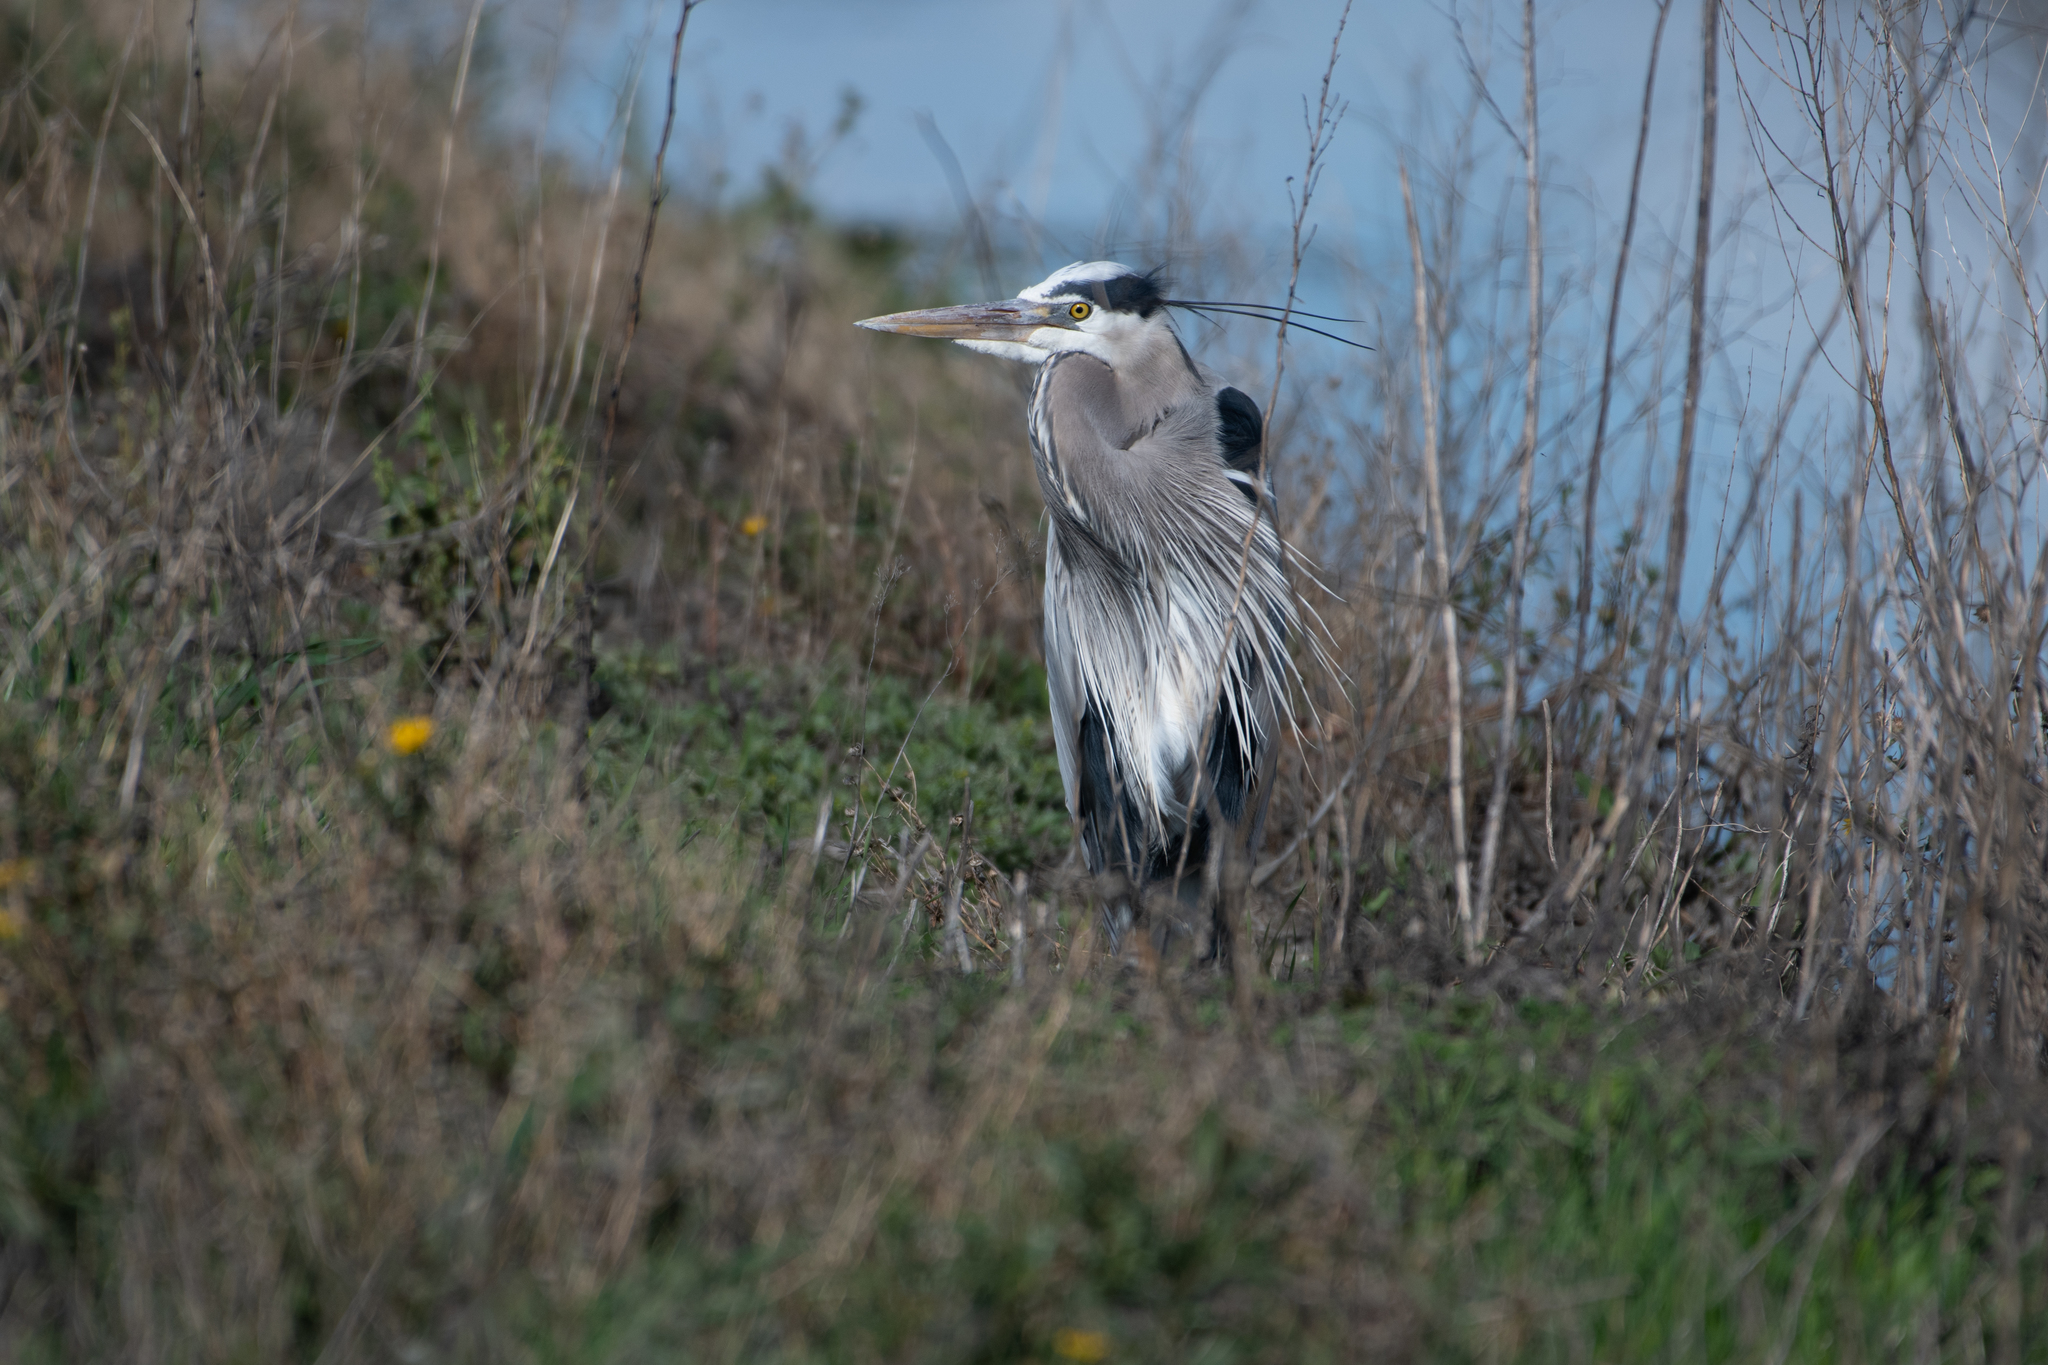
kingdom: Animalia
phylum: Chordata
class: Aves
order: Pelecaniformes
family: Ardeidae
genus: Ardea
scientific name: Ardea herodias
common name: Great blue heron
